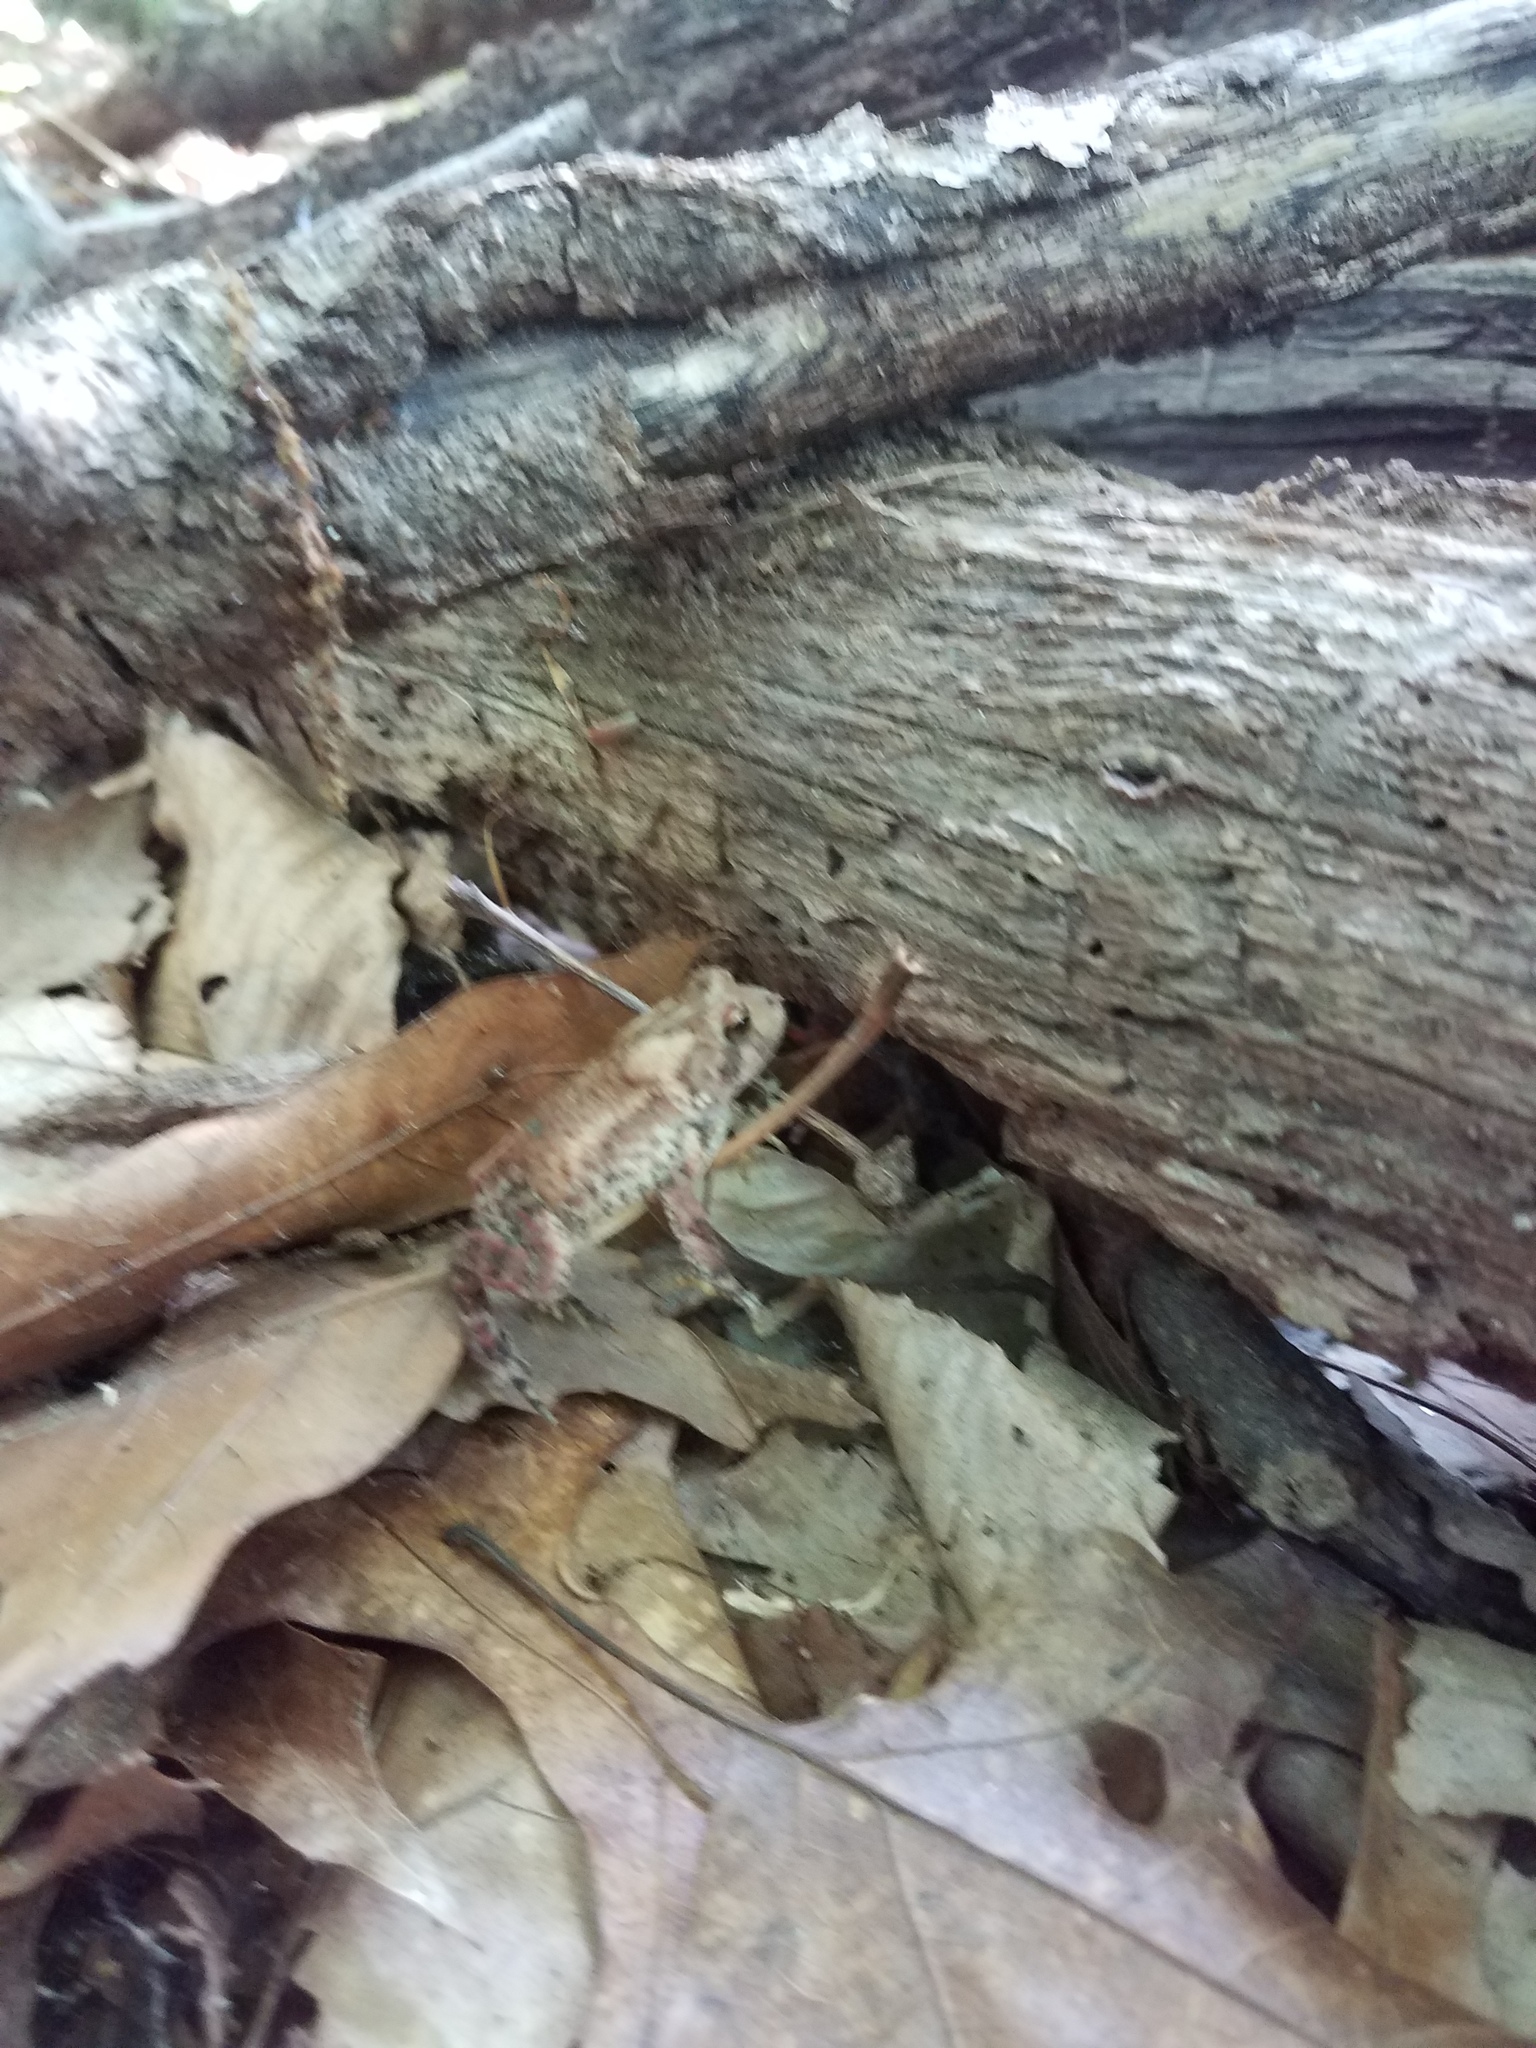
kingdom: Animalia
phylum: Chordata
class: Amphibia
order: Anura
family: Bufonidae
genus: Anaxyrus
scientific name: Anaxyrus americanus
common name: American toad
